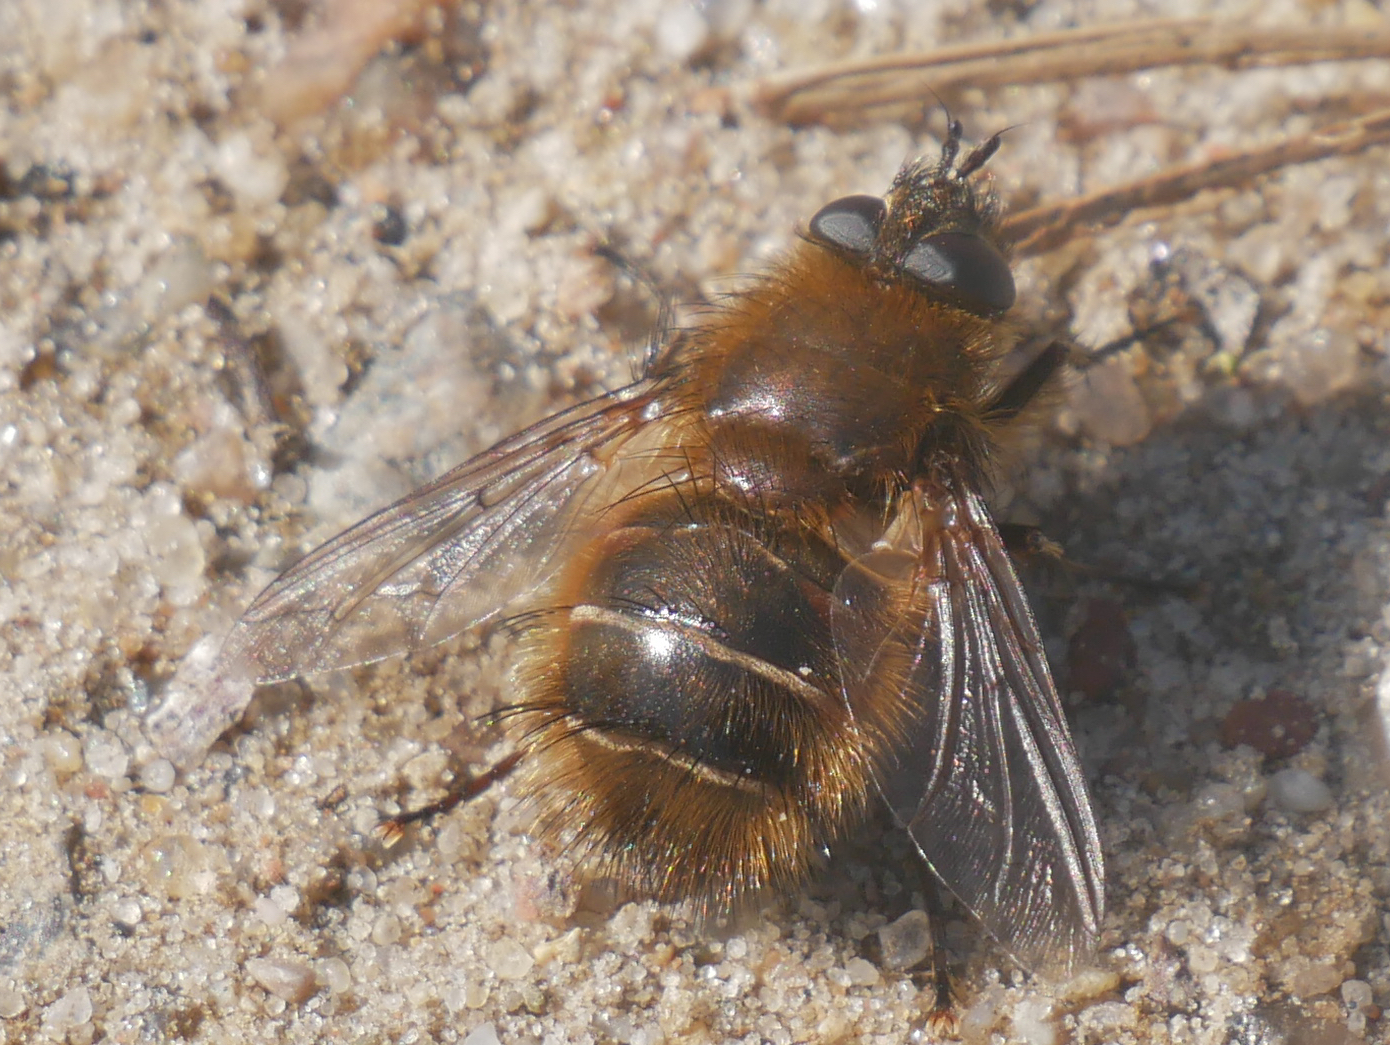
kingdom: Animalia
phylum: Arthropoda
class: Insecta
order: Diptera
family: Tachinidae
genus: Tachina
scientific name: Tachina ursina
